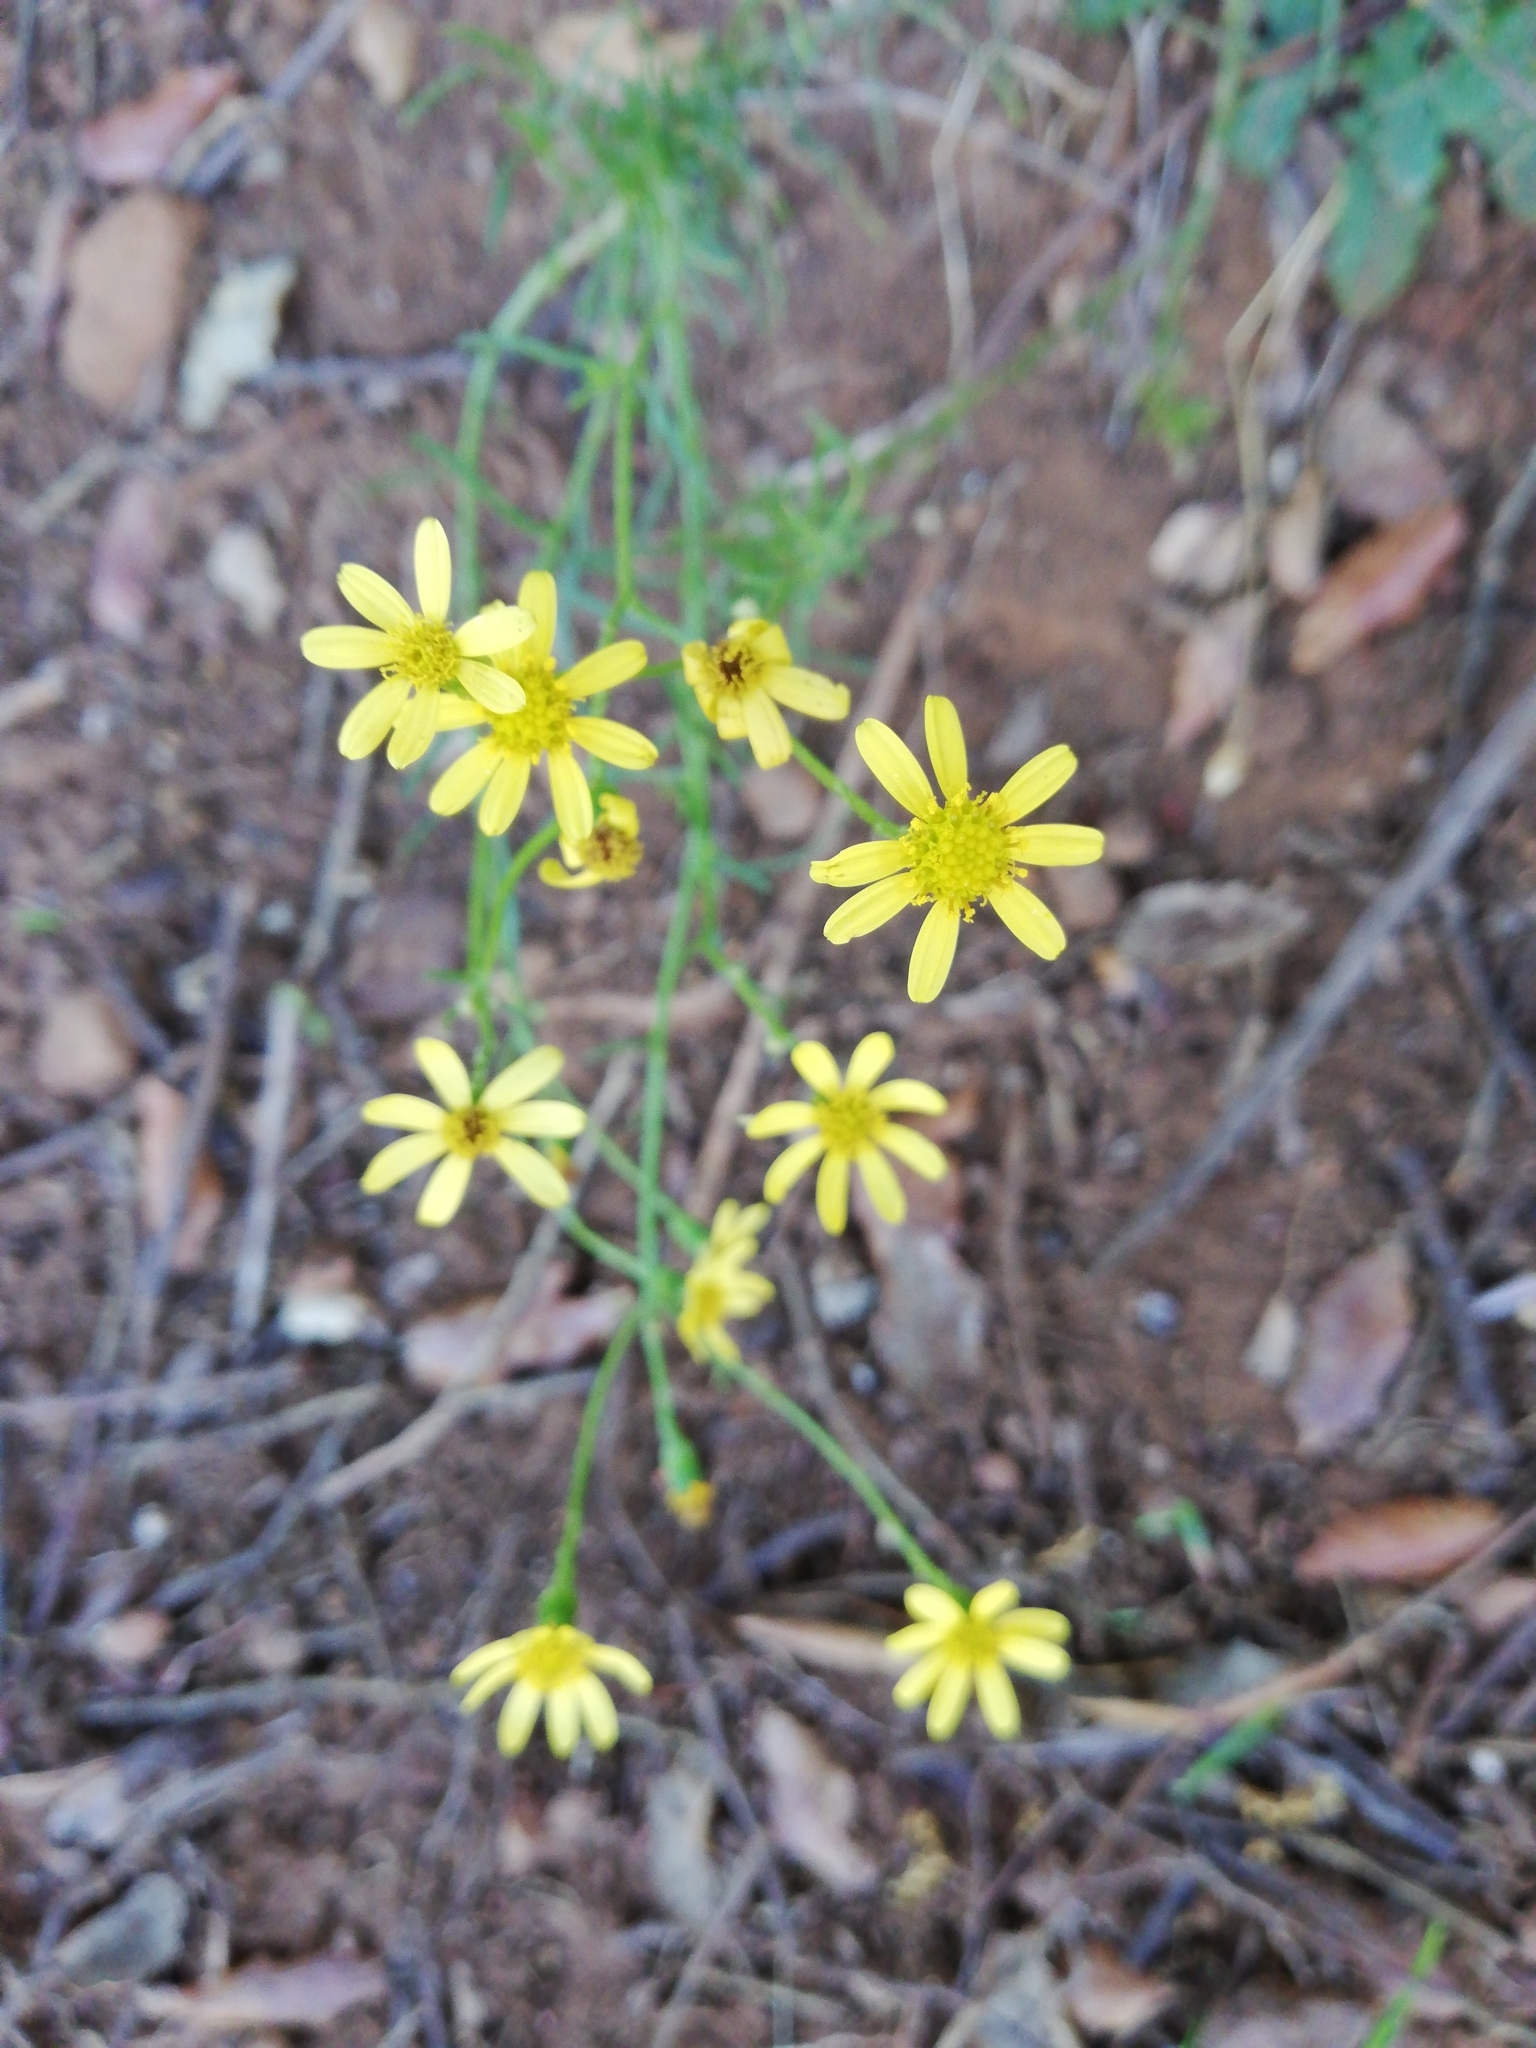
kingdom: Plantae
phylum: Tracheophyta
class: Magnoliopsida
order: Asterales
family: Asteraceae
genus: Senecio
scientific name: Senecio burchellii
